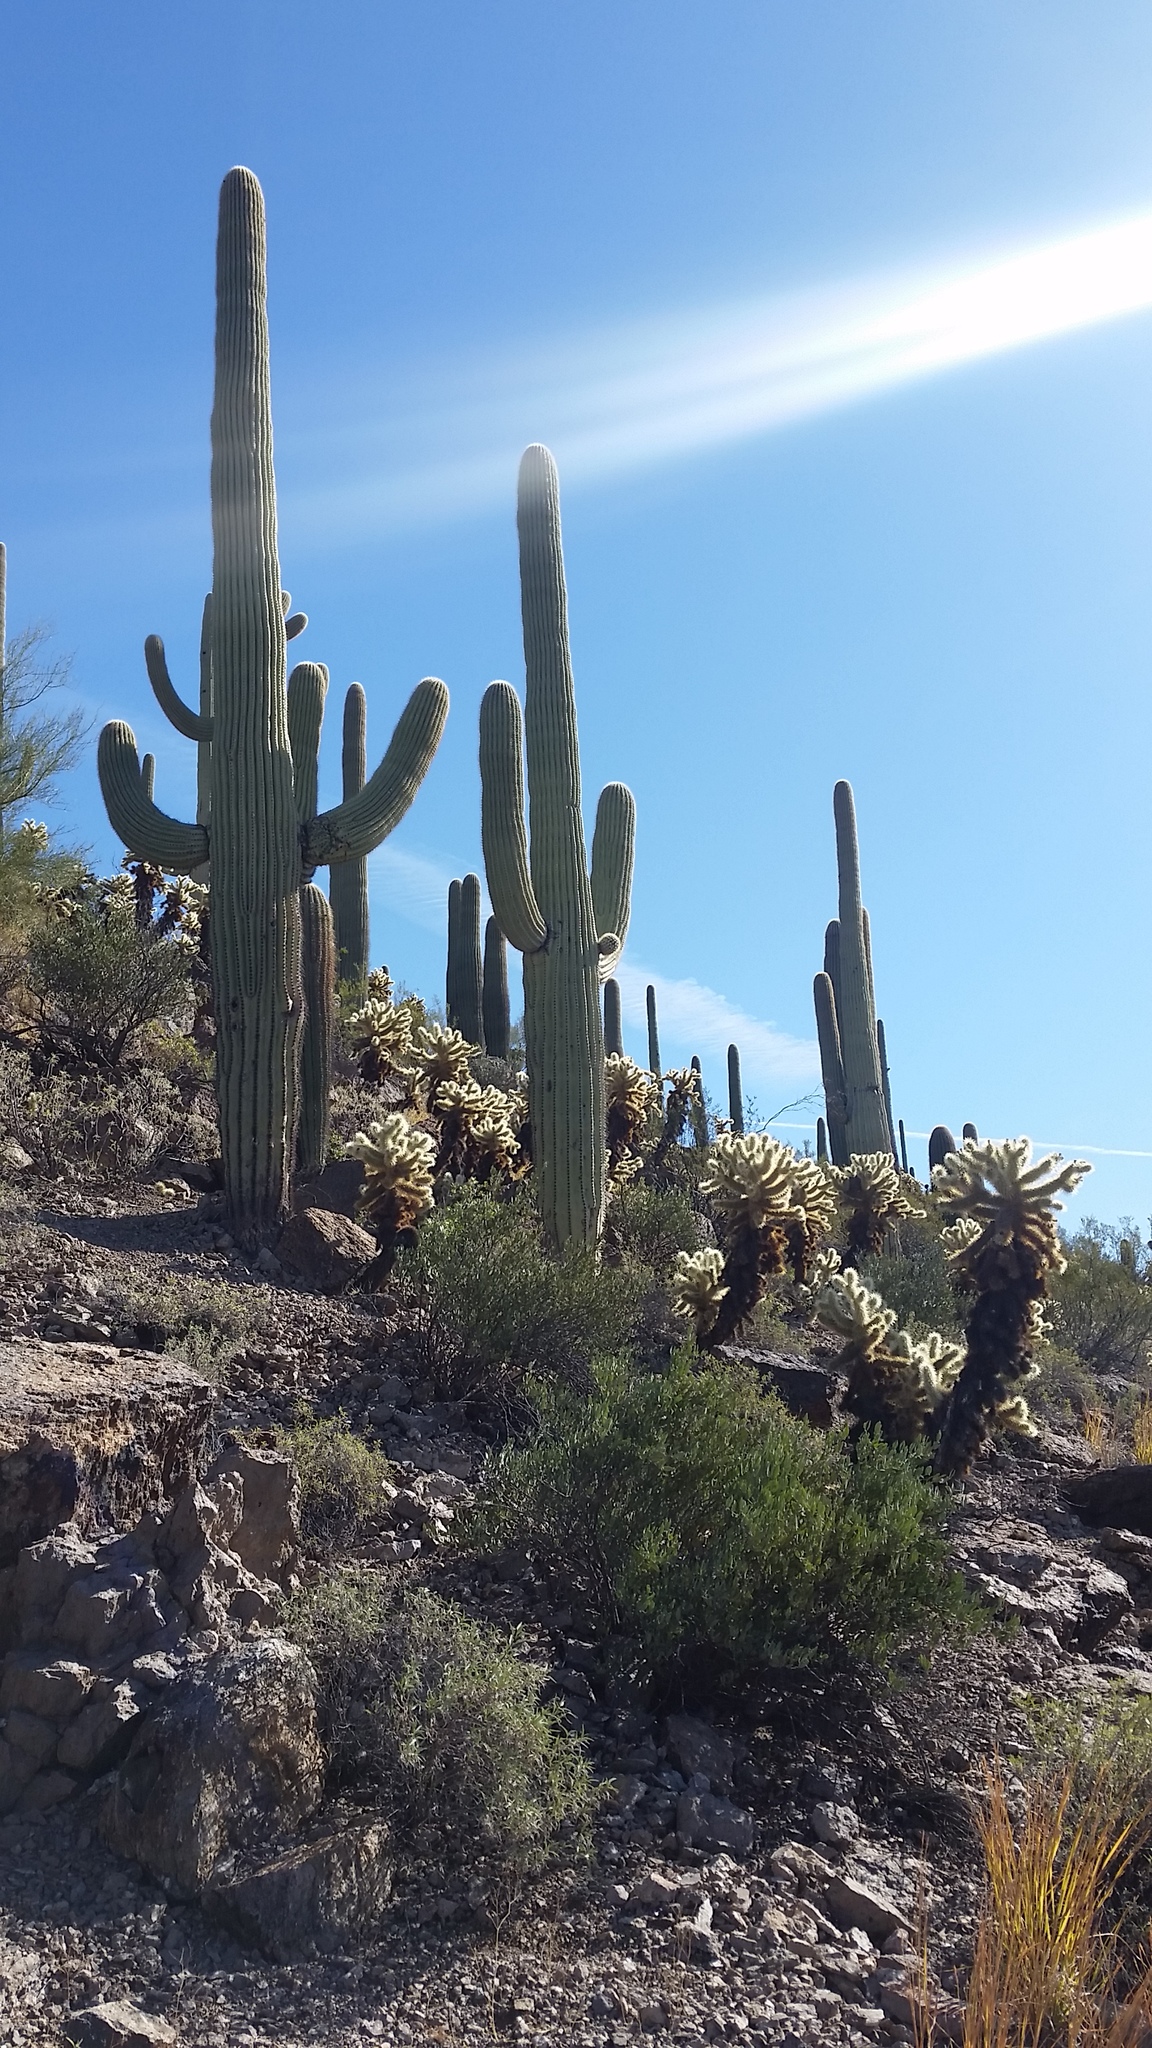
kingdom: Plantae
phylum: Tracheophyta
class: Magnoliopsida
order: Caryophyllales
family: Cactaceae
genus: Carnegiea
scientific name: Carnegiea gigantea
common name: Saguaro
